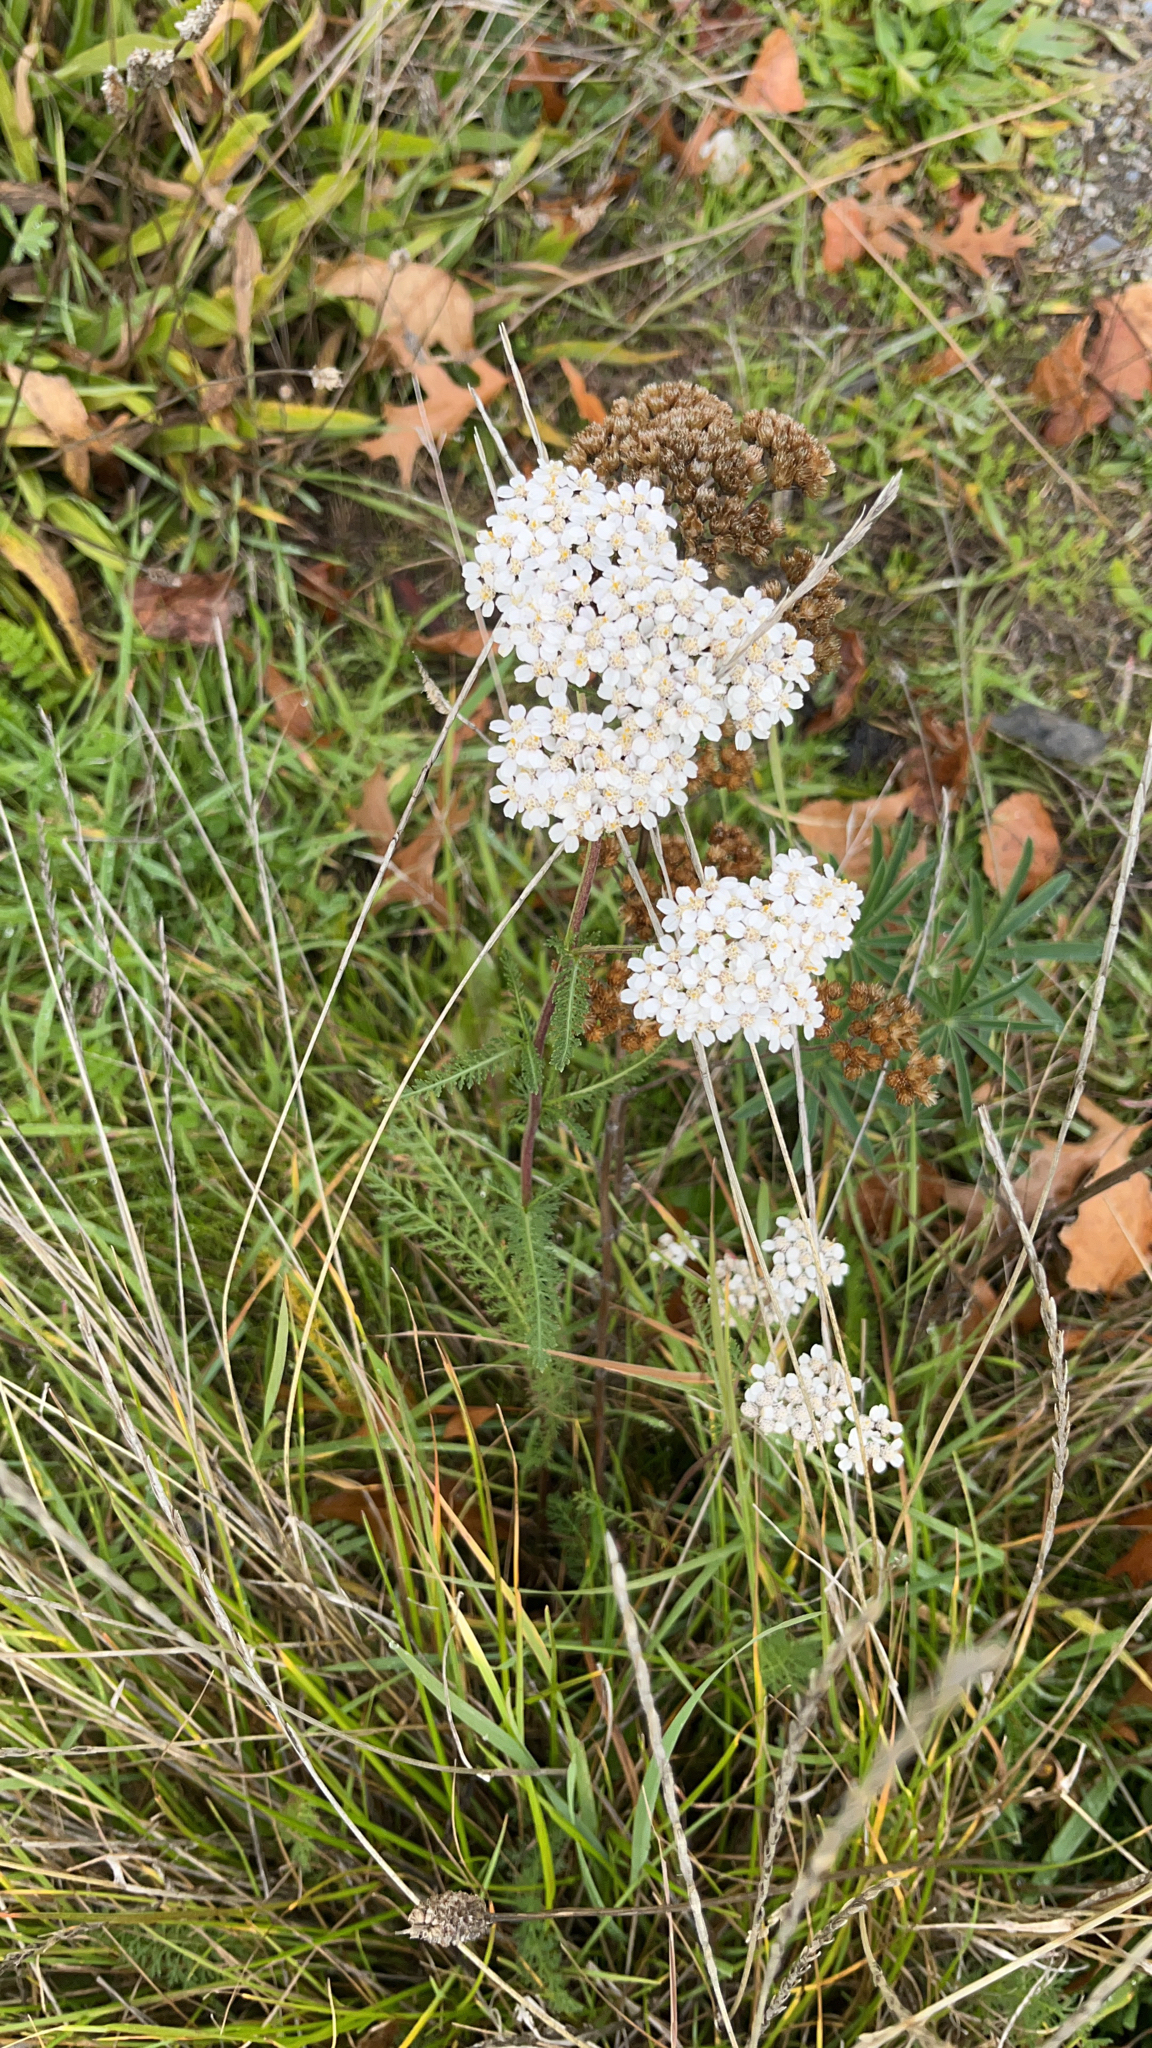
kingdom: Plantae
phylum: Tracheophyta
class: Magnoliopsida
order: Asterales
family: Asteraceae
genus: Achillea
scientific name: Achillea millefolium
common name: Yarrow
